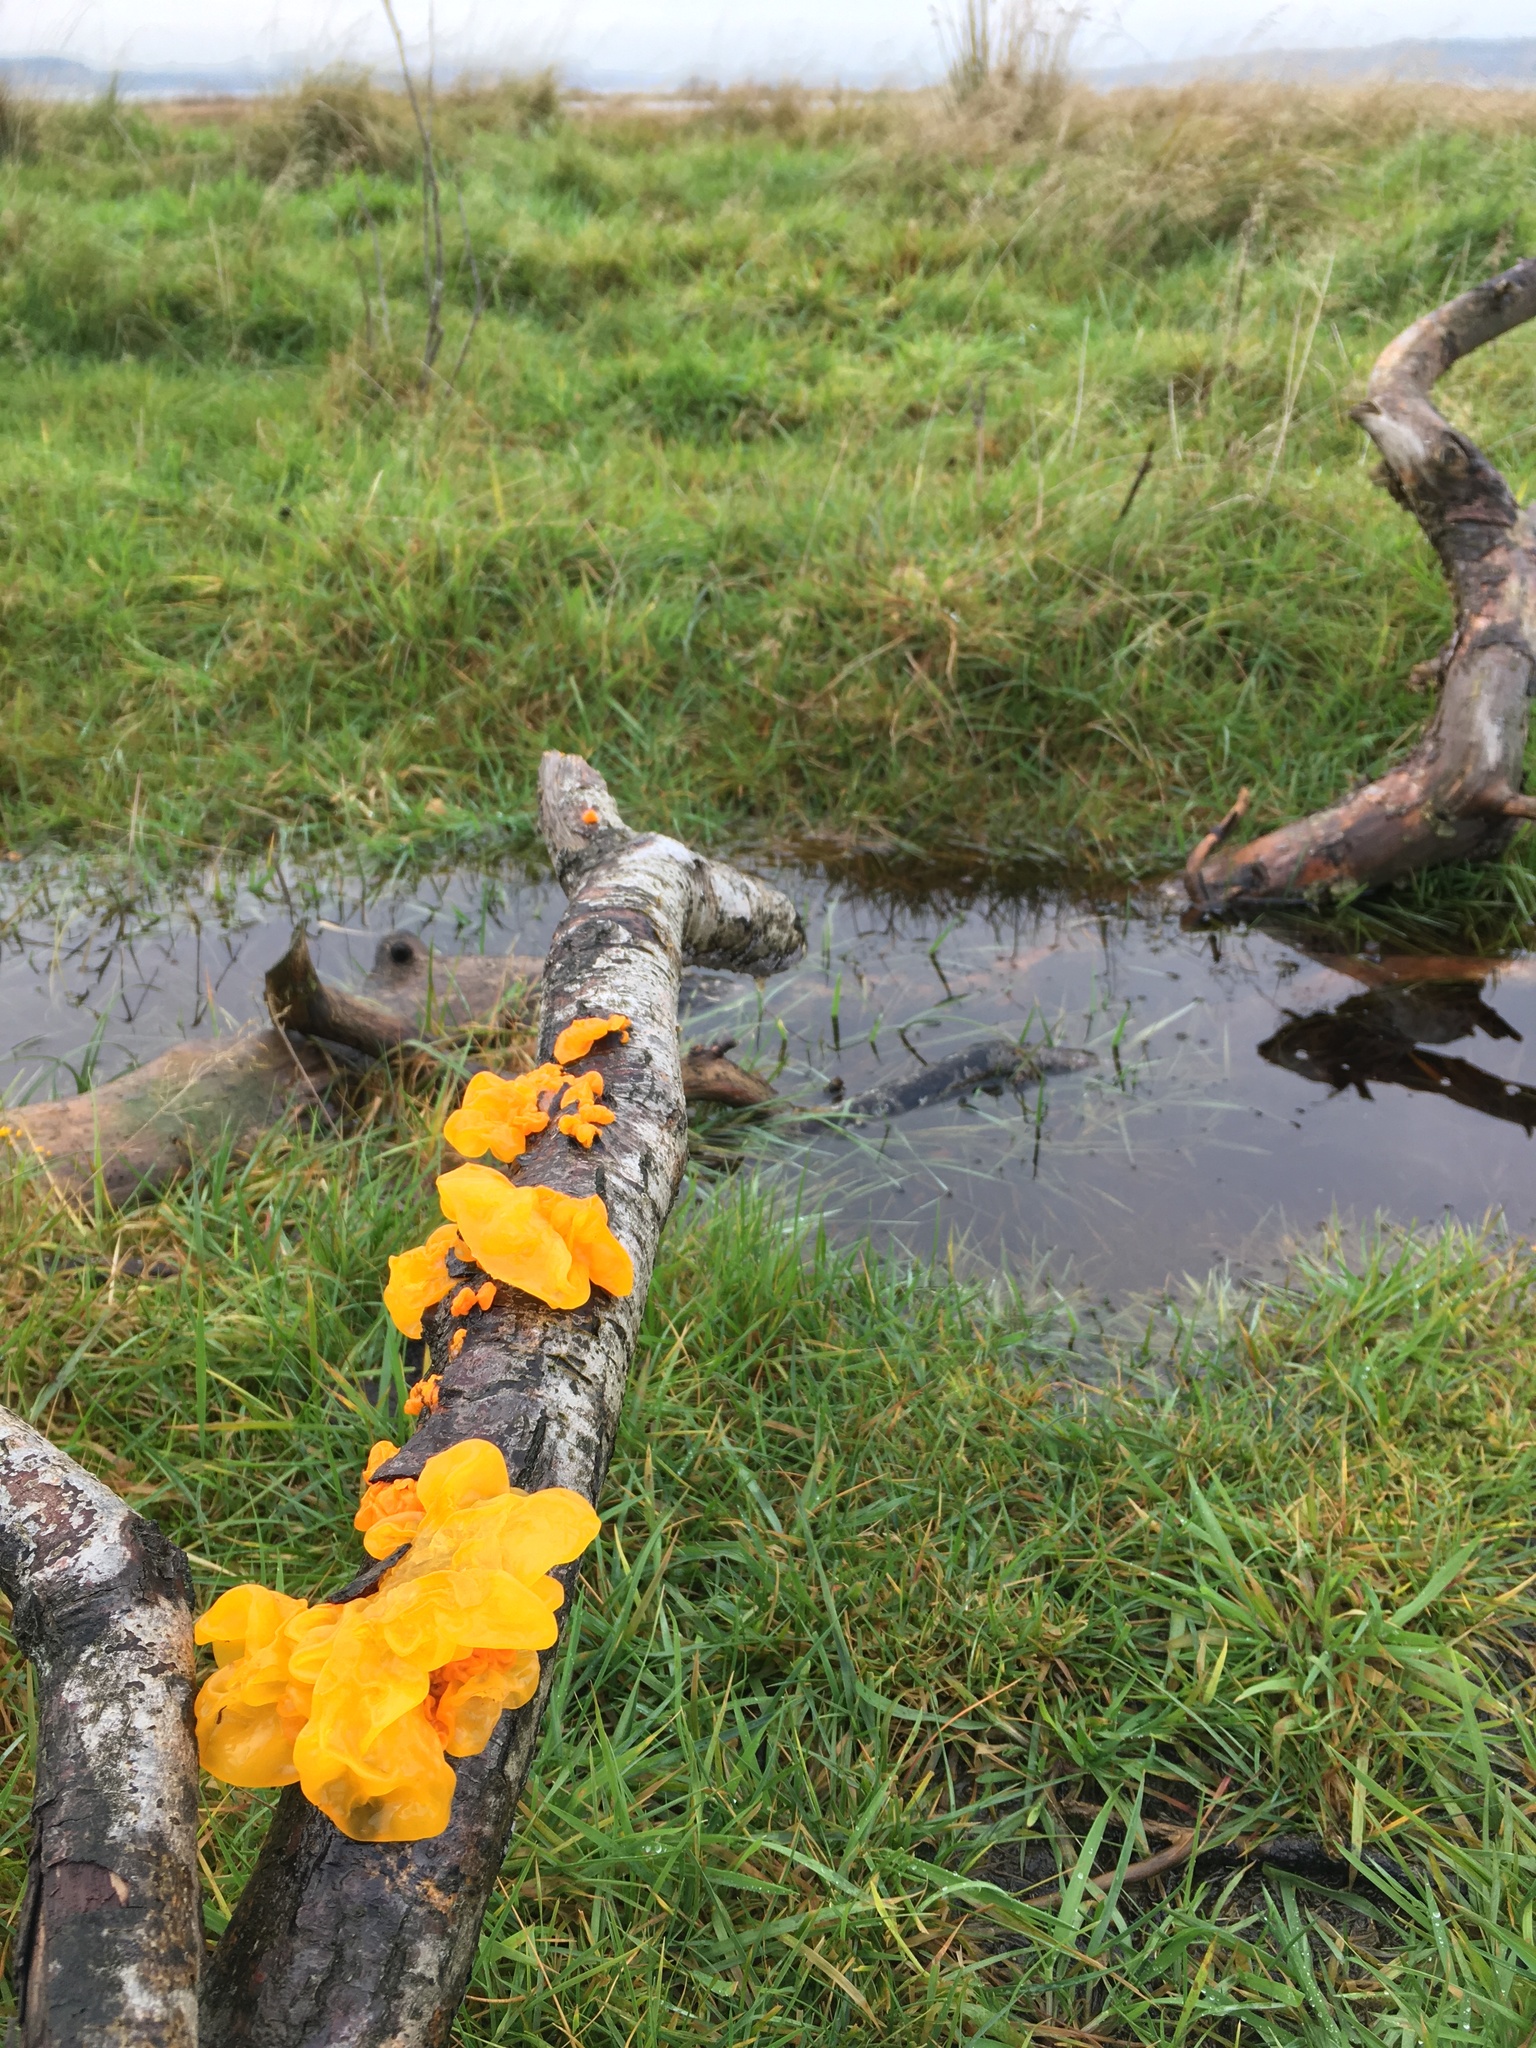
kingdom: Fungi
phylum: Basidiomycota
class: Tremellomycetes
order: Tremellales
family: Tremellaceae
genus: Tremella
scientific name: Tremella mesenterica
